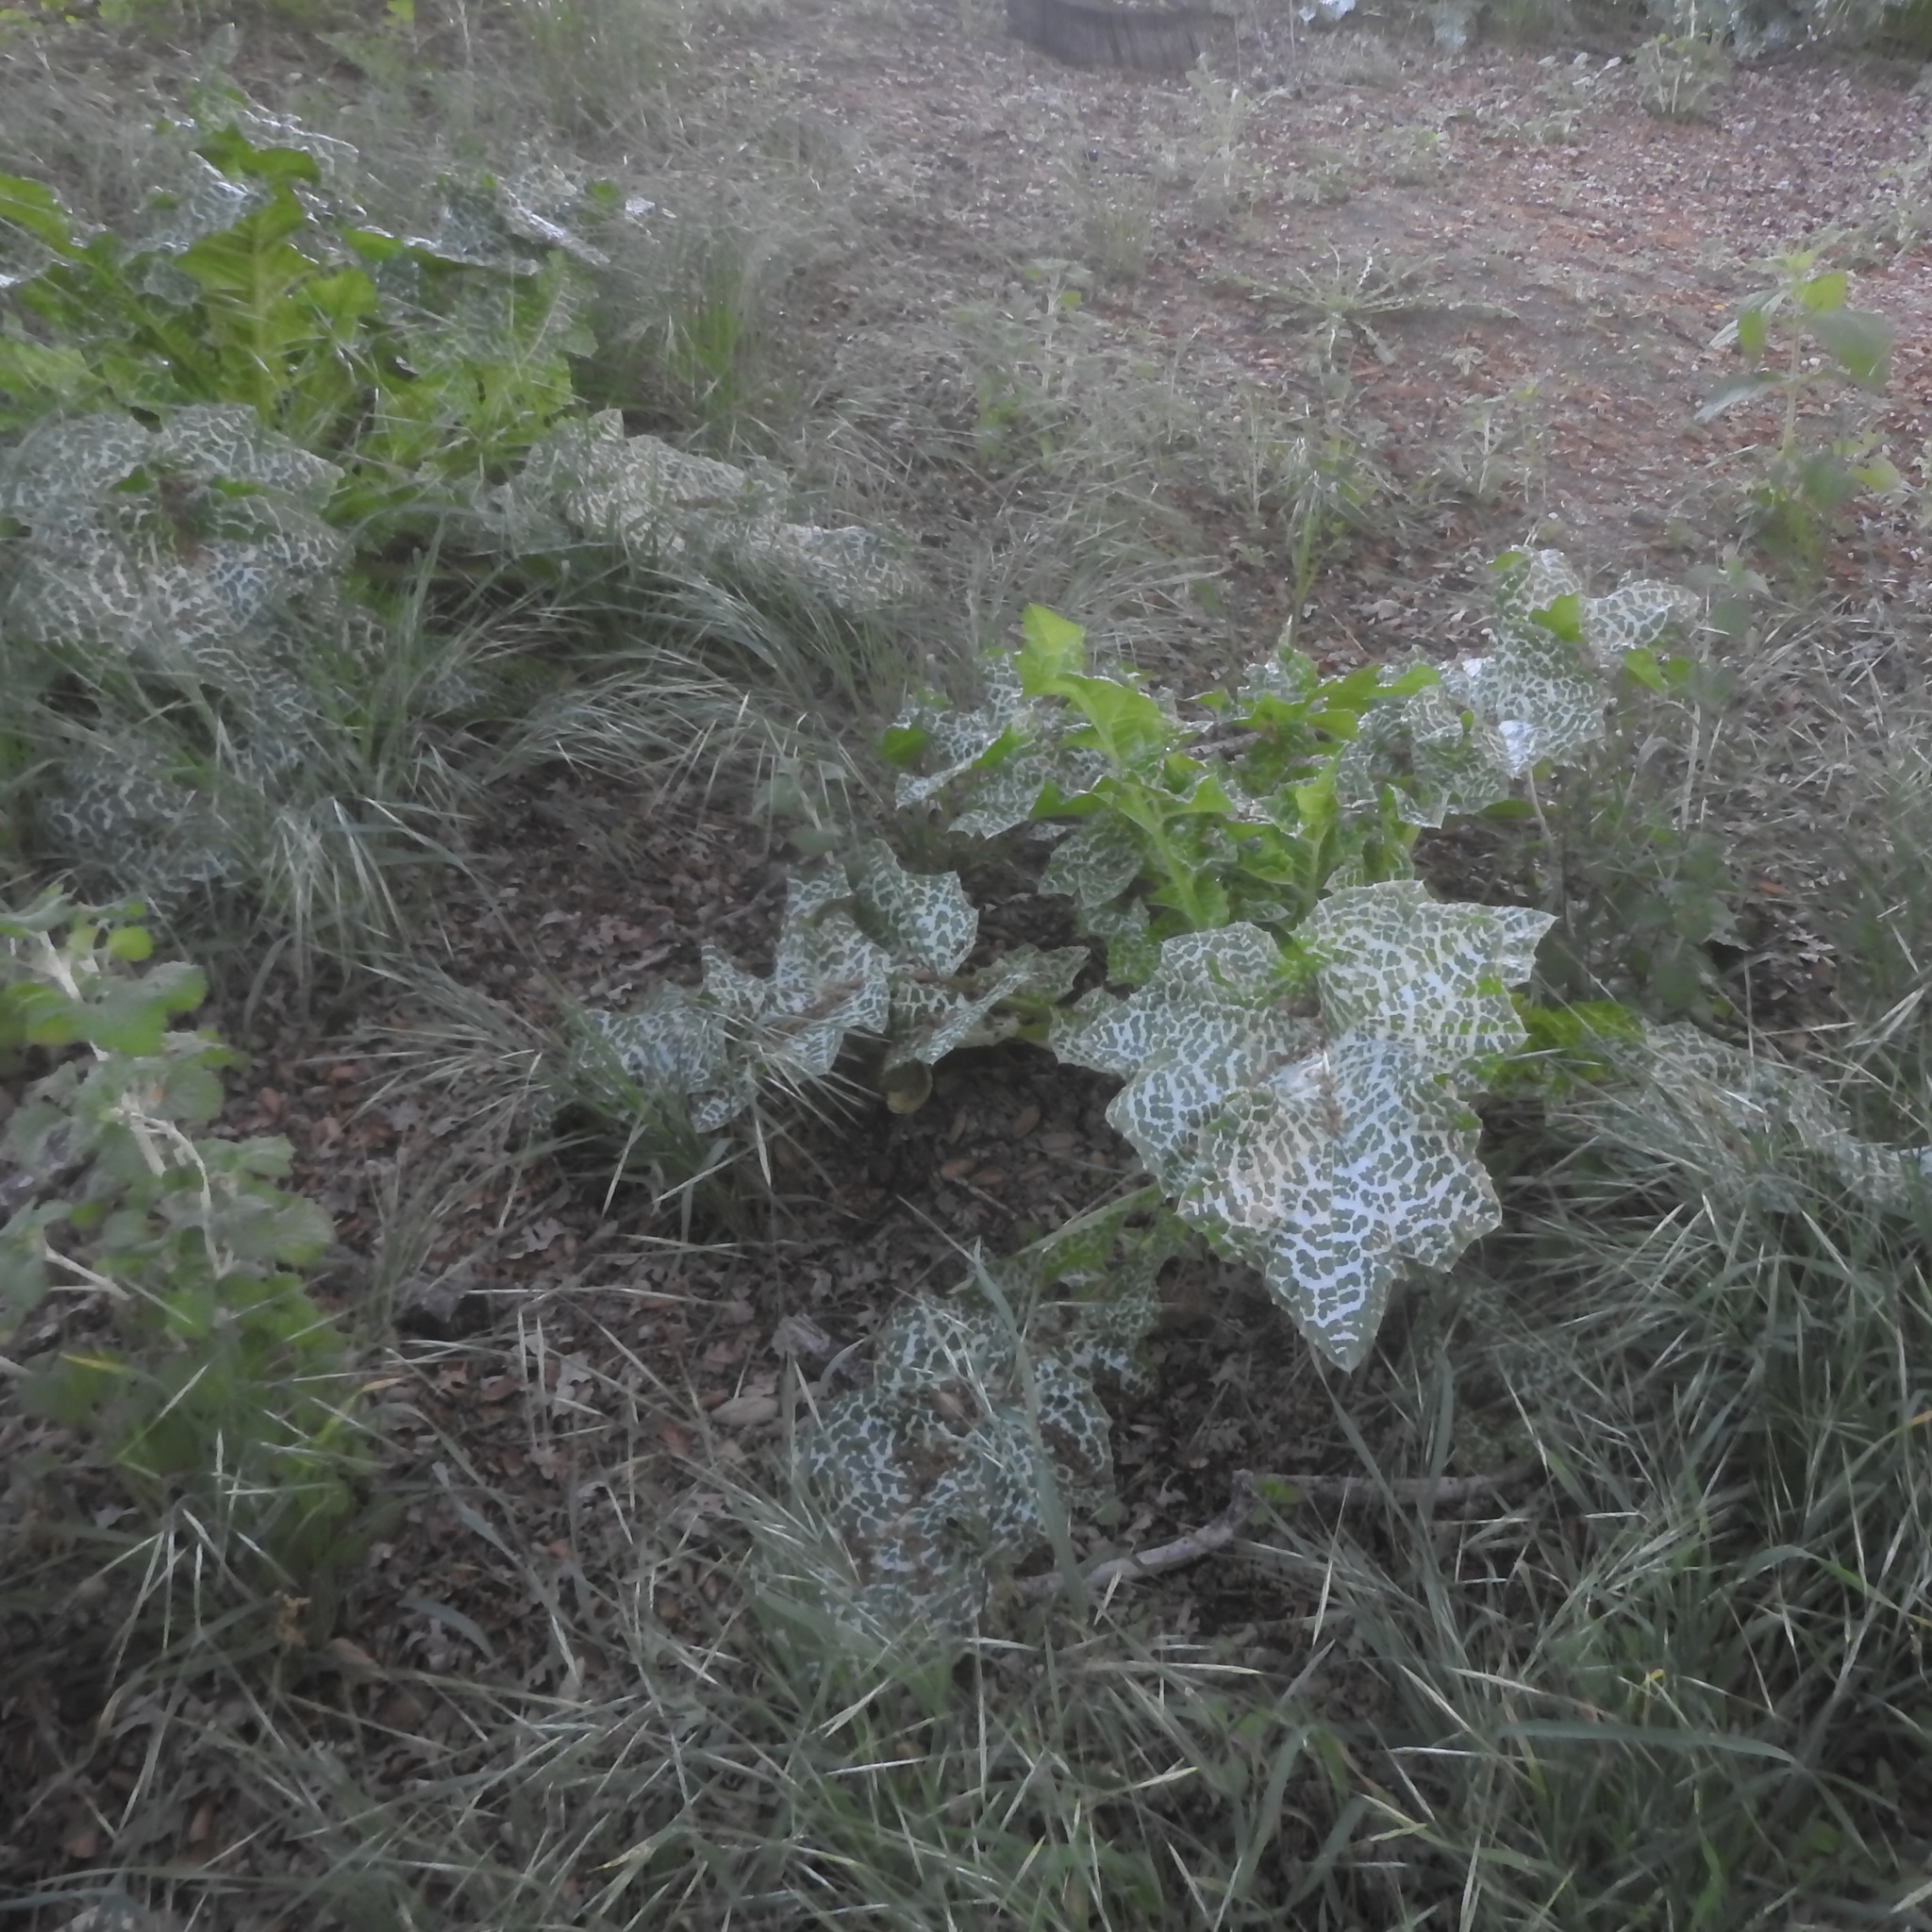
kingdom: Plantae
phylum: Tracheophyta
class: Magnoliopsida
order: Asterales
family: Asteraceae
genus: Silybum
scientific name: Silybum marianum
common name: Milk thistle
